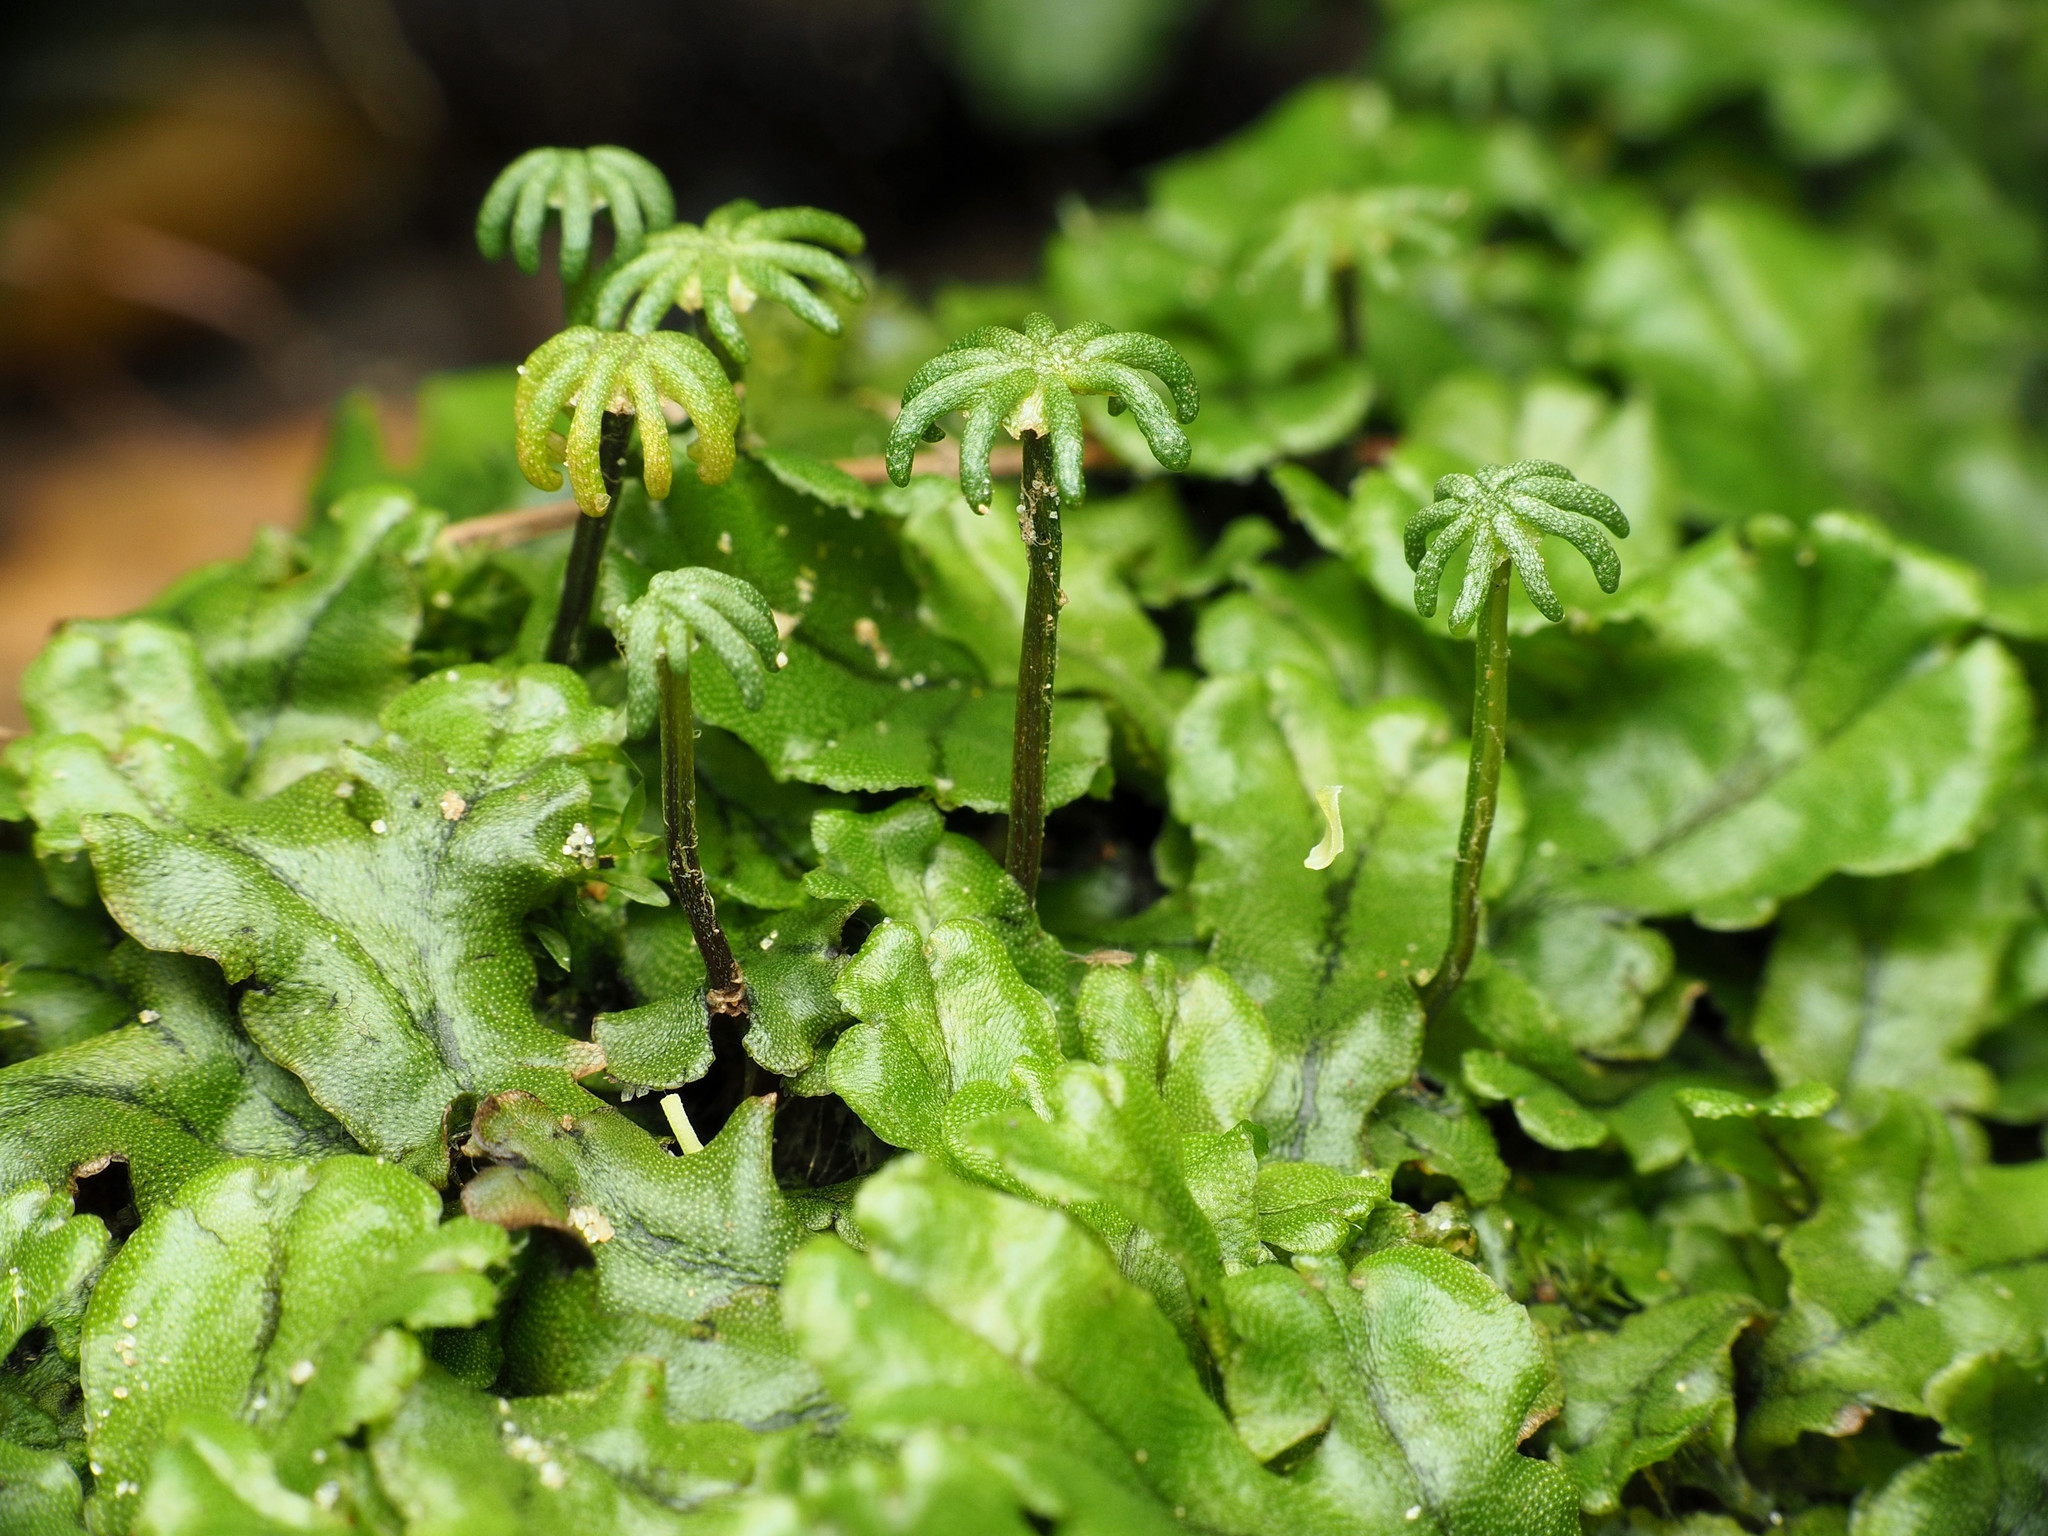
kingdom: Plantae
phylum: Marchantiophyta
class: Marchantiopsida
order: Marchantiales
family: Marchantiaceae
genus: Marchantia
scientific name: Marchantia polymorpha
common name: Common liverwort
